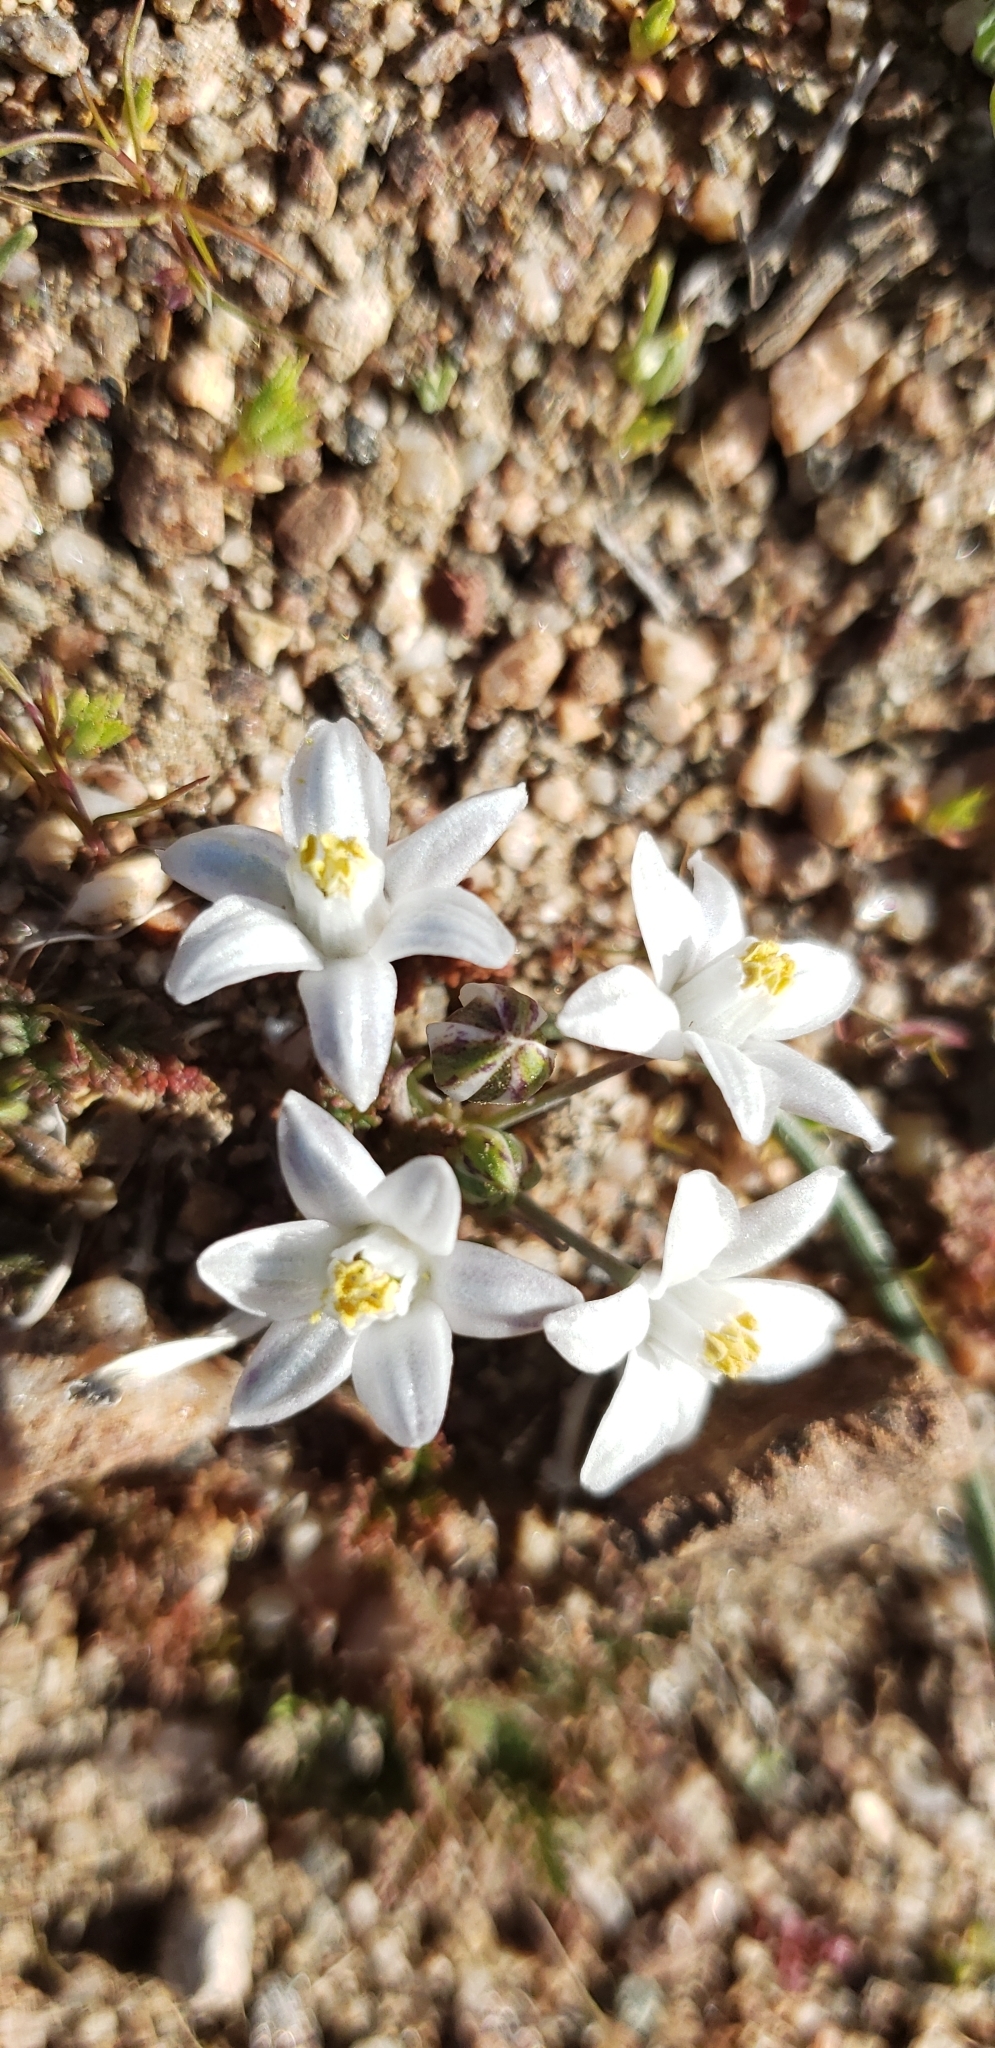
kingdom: Plantae
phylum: Tracheophyta
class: Liliopsida
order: Asparagales
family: Asparagaceae
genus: Muilla
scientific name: Muilla coronata
